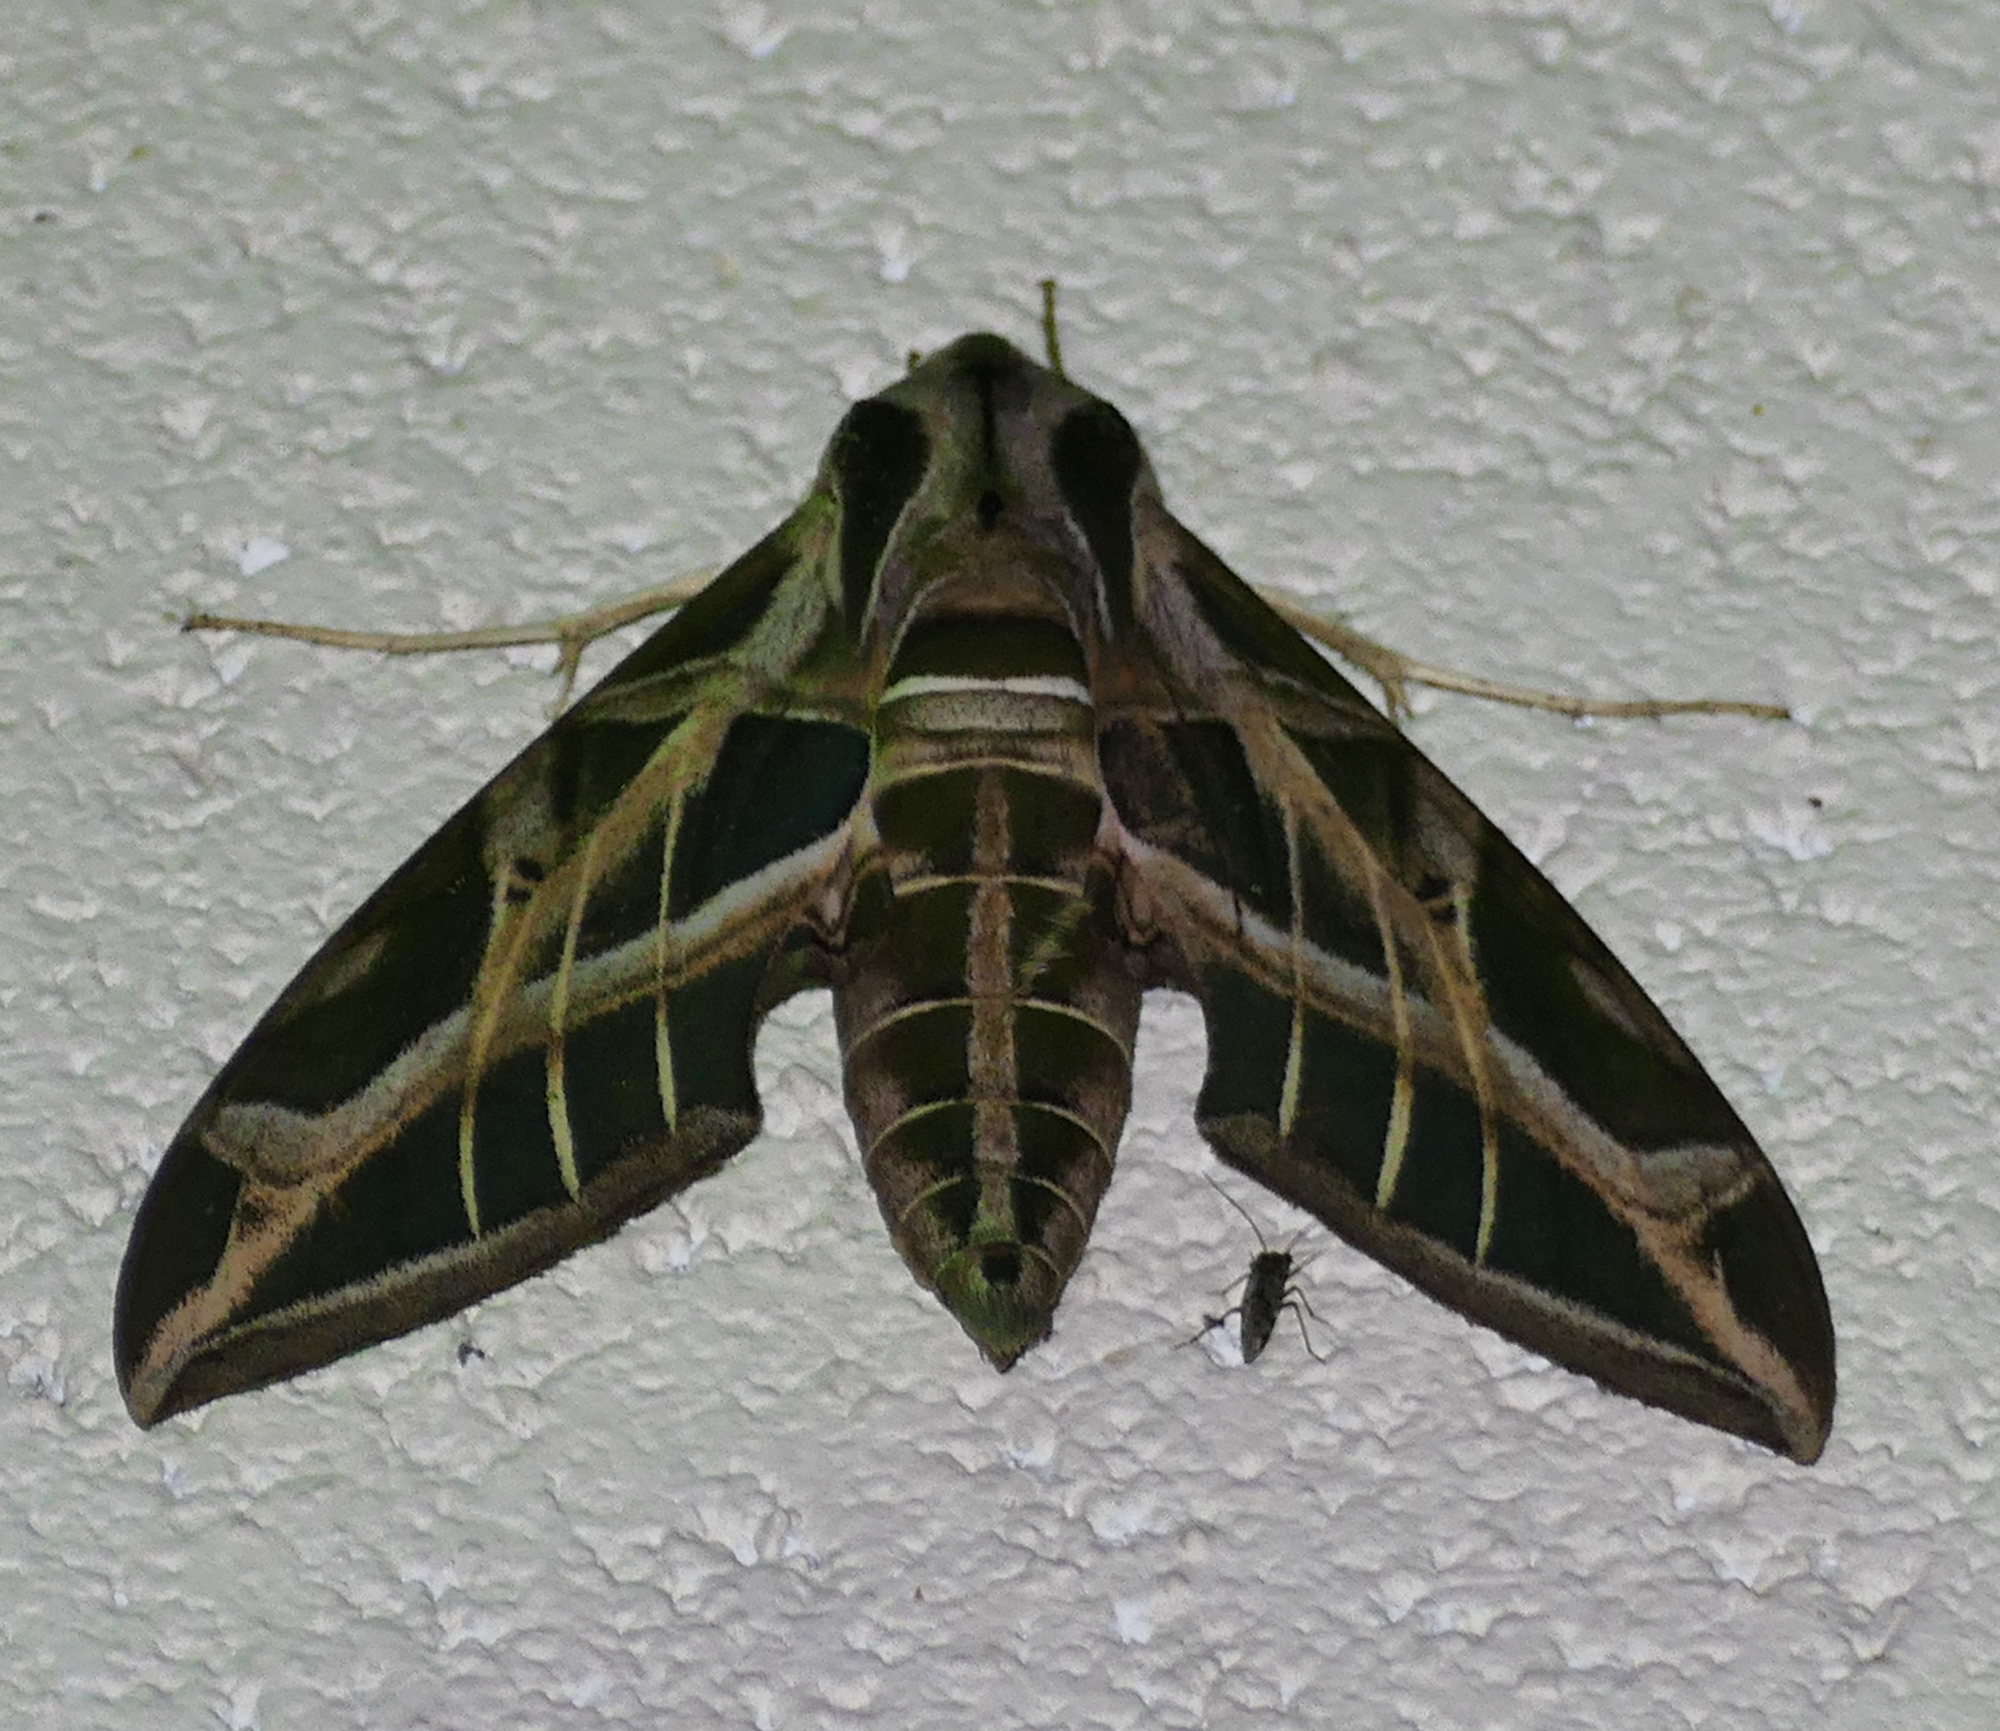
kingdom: Animalia
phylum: Arthropoda
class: Insecta
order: Lepidoptera
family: Sphingidae
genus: Eumorpha
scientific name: Eumorpha vitis
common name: Vine sphinx
